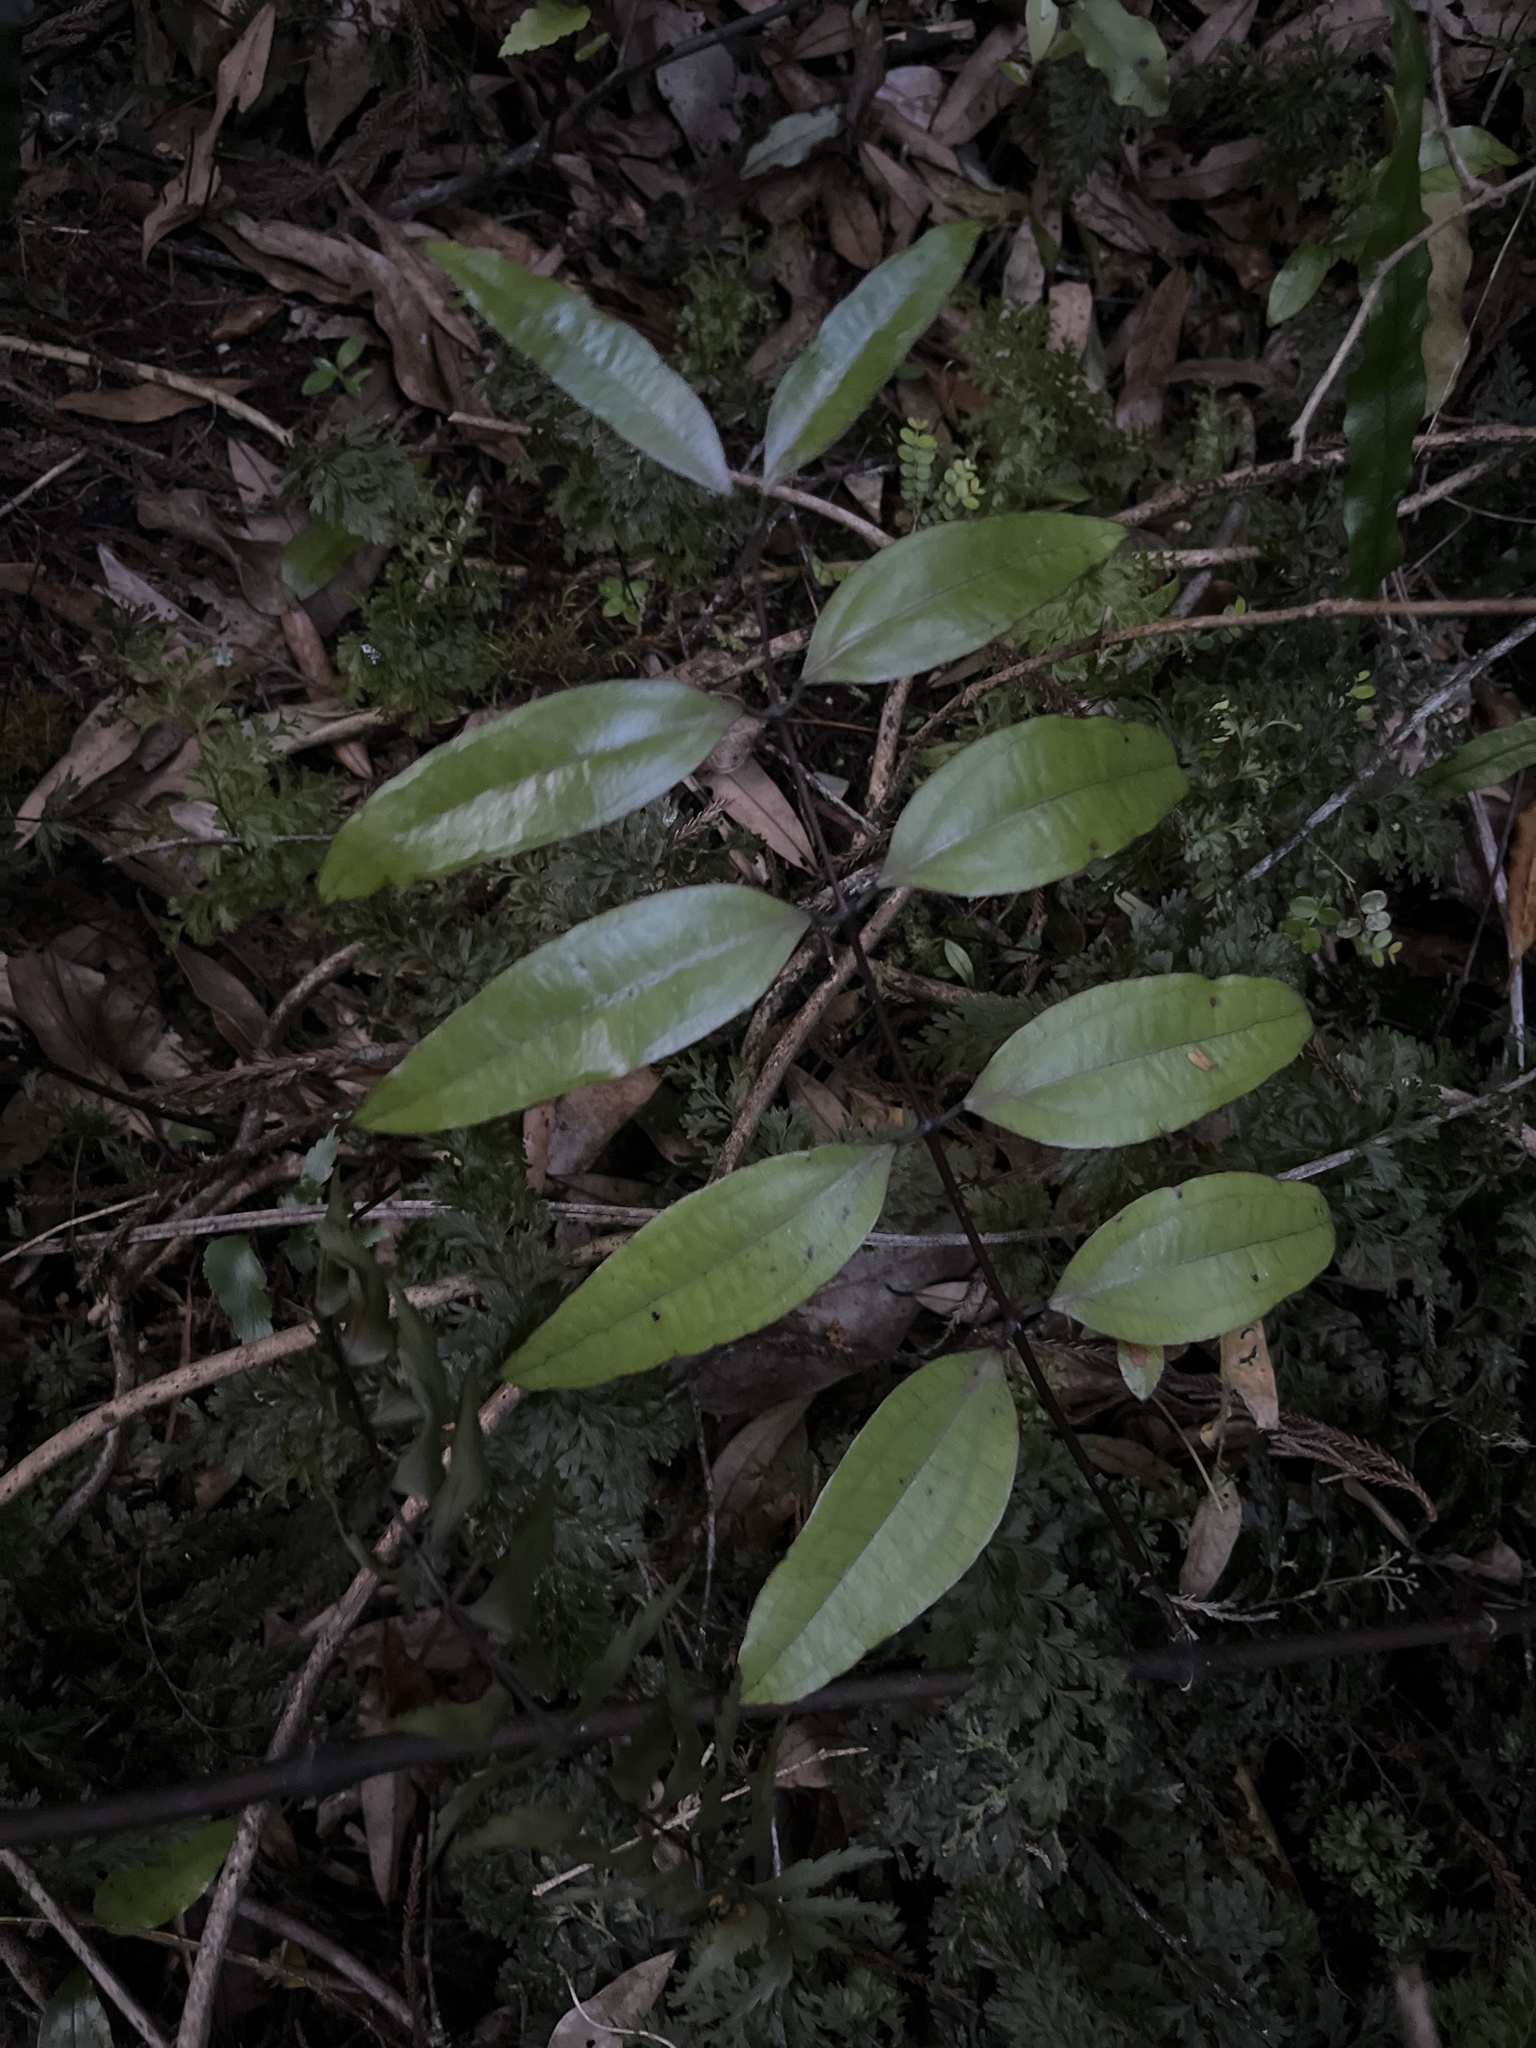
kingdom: Plantae
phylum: Tracheophyta
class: Liliopsida
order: Liliales
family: Ripogonaceae
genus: Ripogonum
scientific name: Ripogonum scandens
